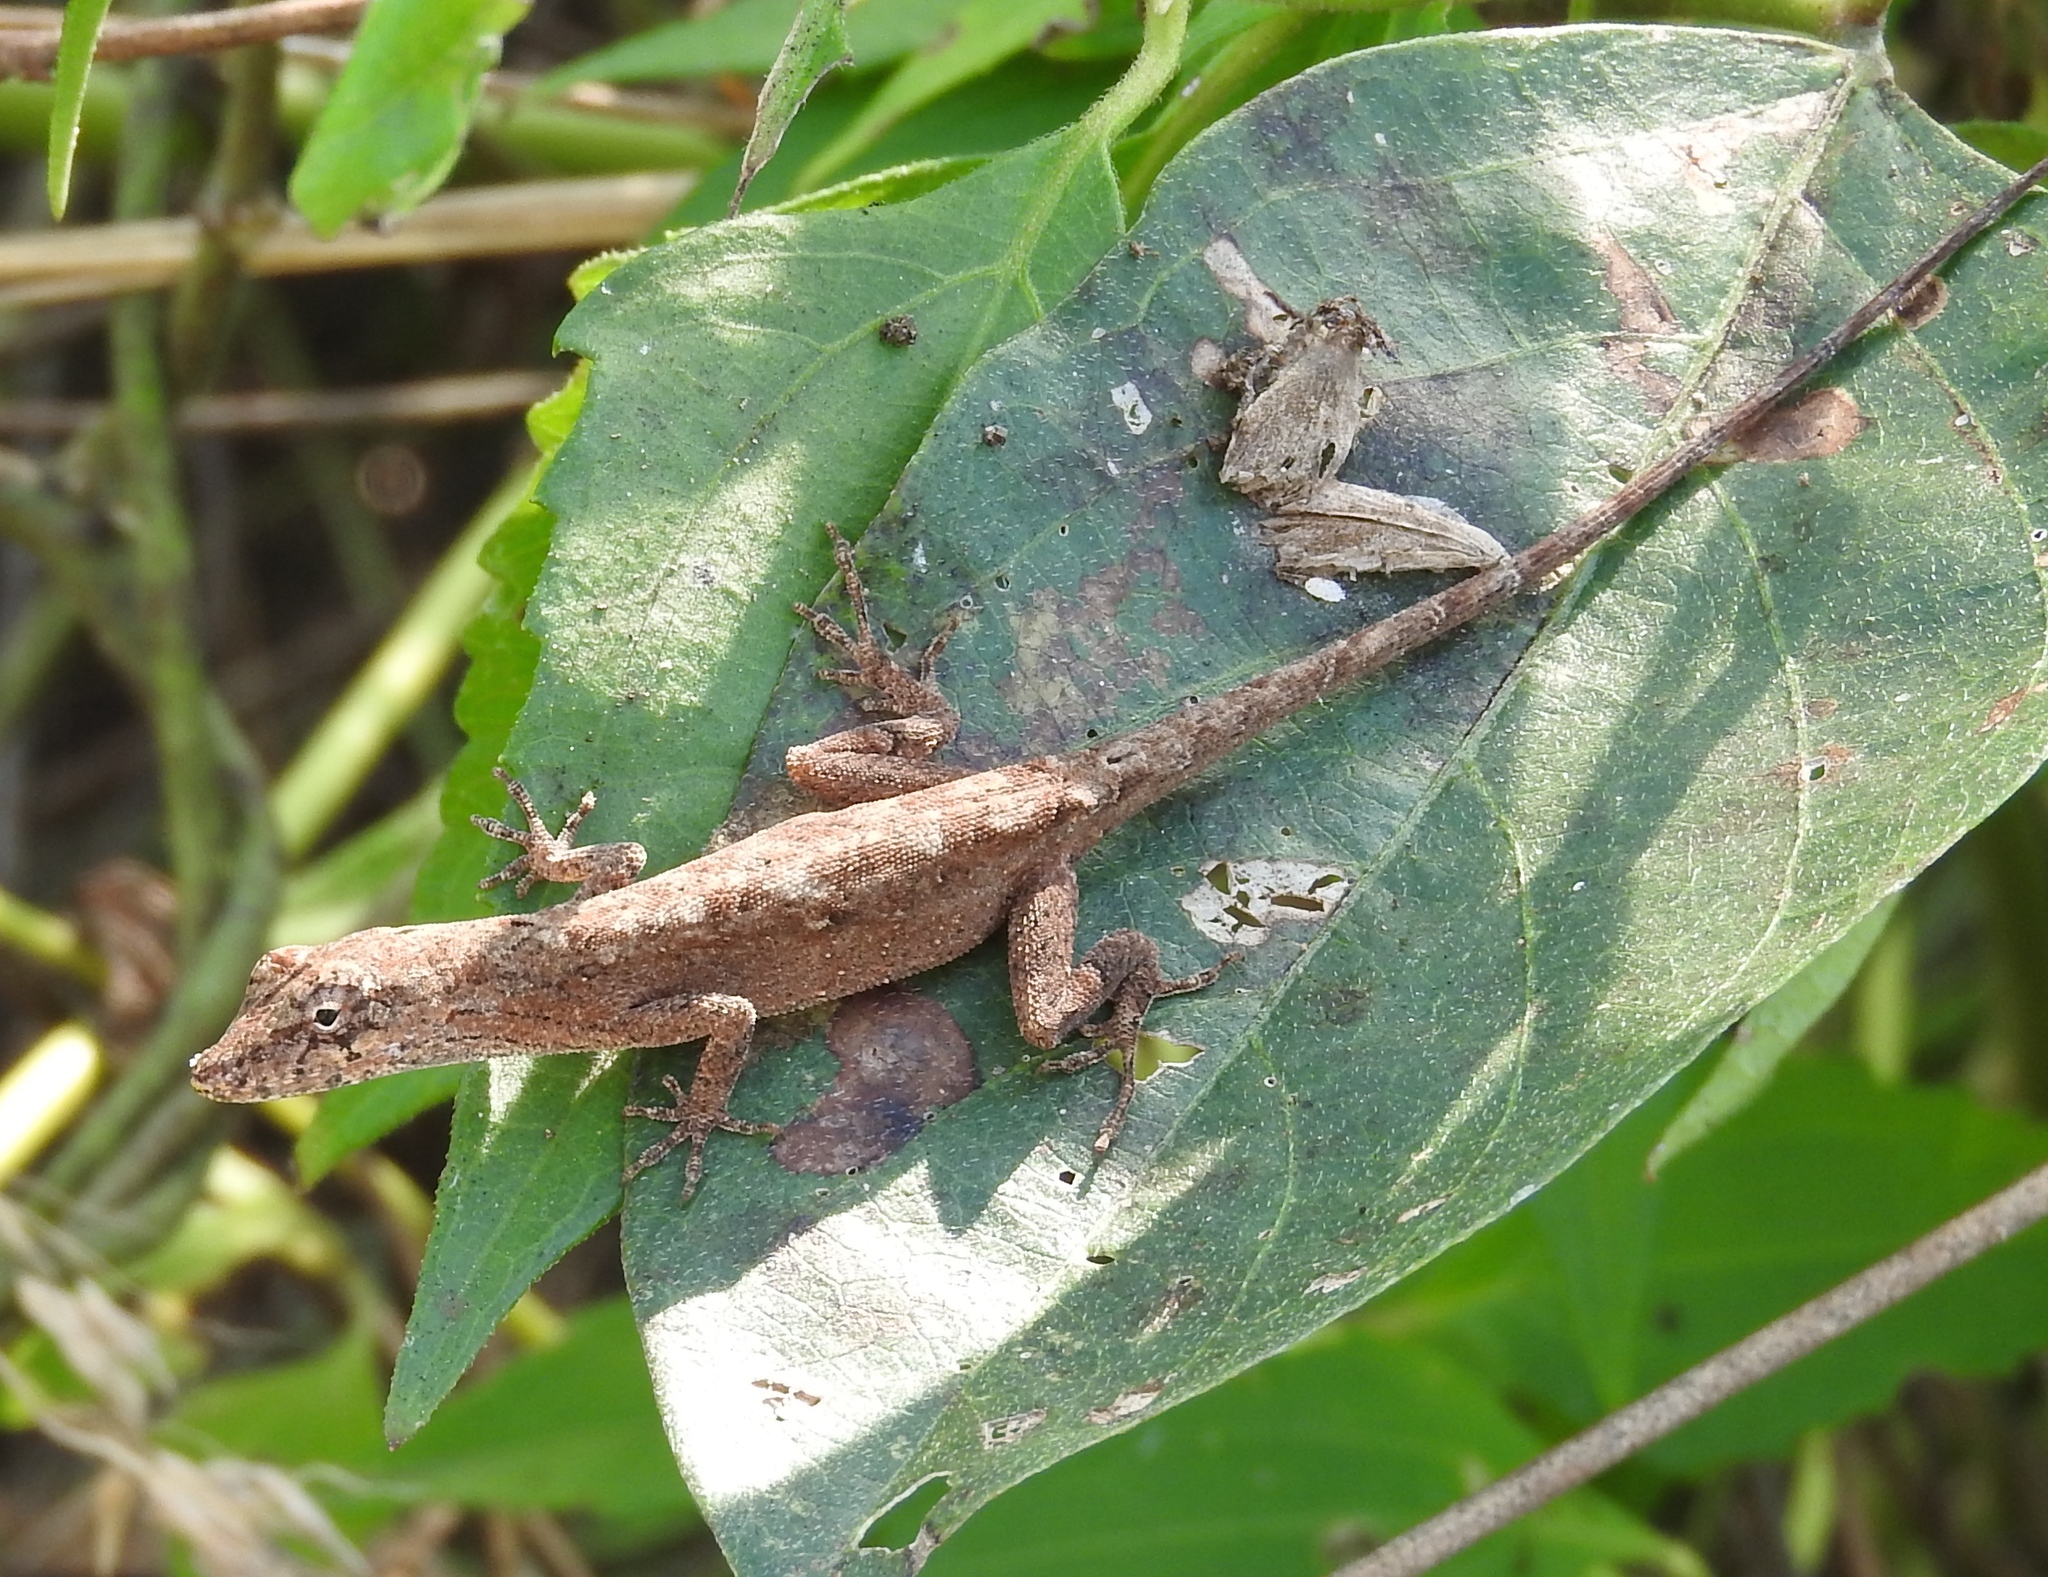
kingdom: Animalia
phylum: Chordata
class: Squamata
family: Dactyloidae
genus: Anolis
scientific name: Anolis nebulosus
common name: Clouded anole
